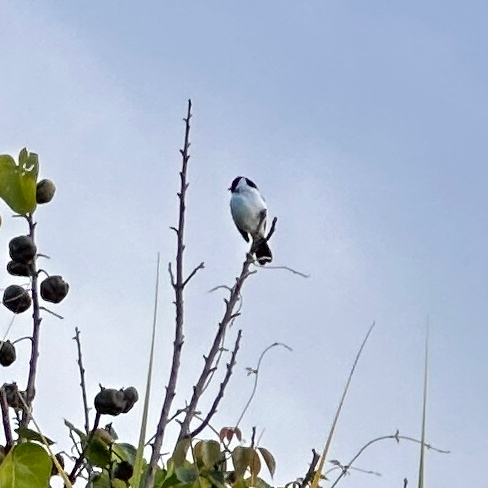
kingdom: Animalia
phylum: Chordata
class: Aves
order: Passeriformes
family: Thraupidae
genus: Paroaria
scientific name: Paroaria capitata
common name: Yellow-billed cardinal
